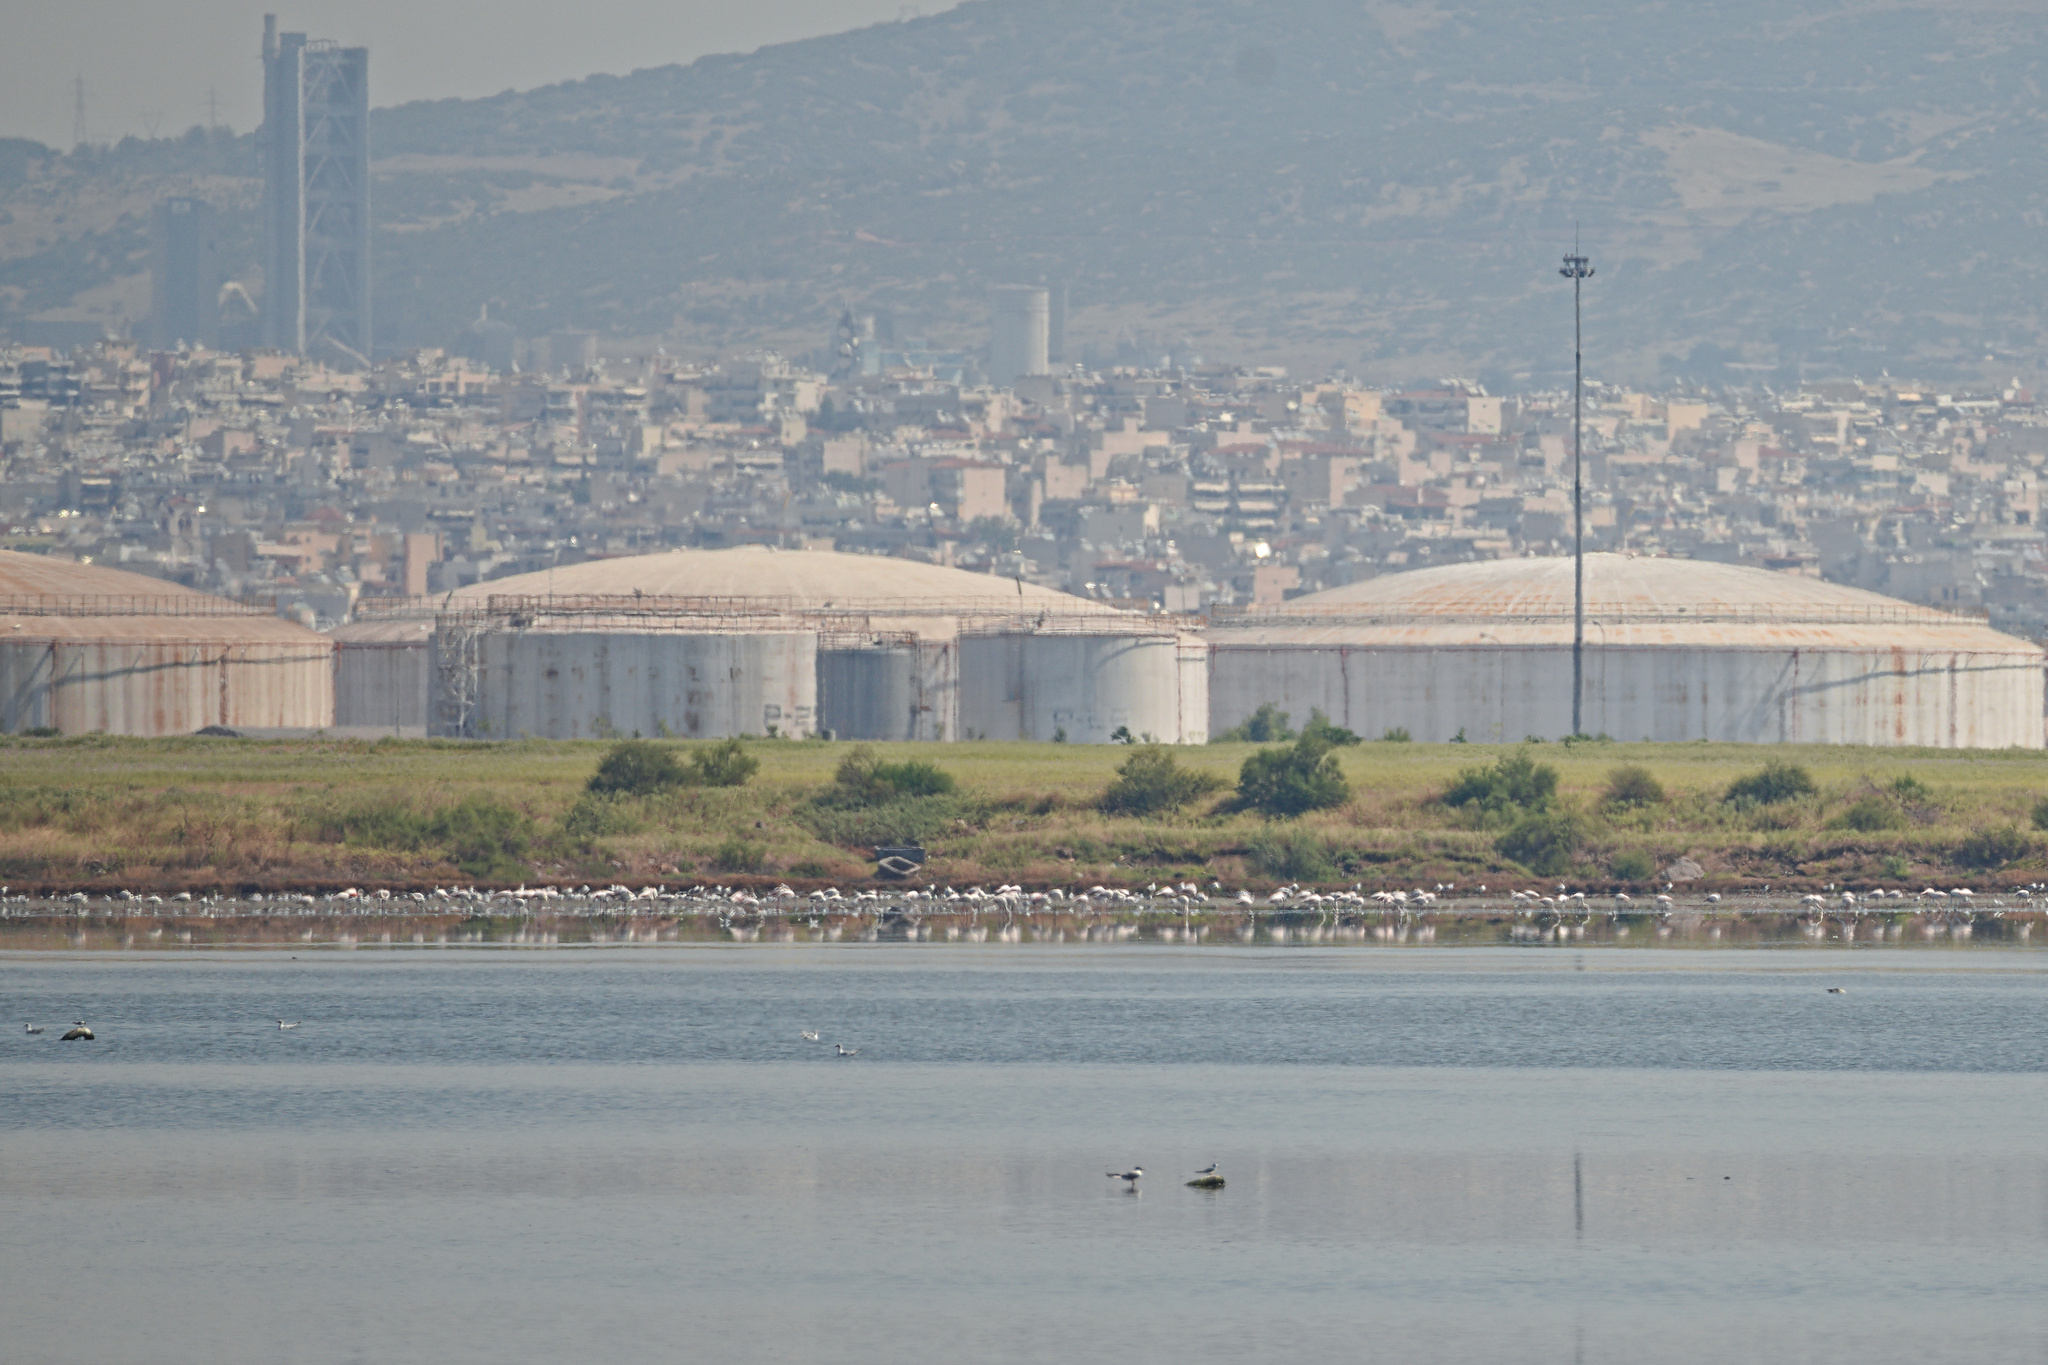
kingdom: Animalia
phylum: Chordata
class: Aves
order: Phoenicopteriformes
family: Phoenicopteridae
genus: Phoenicopterus
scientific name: Phoenicopterus roseus
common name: Greater flamingo
